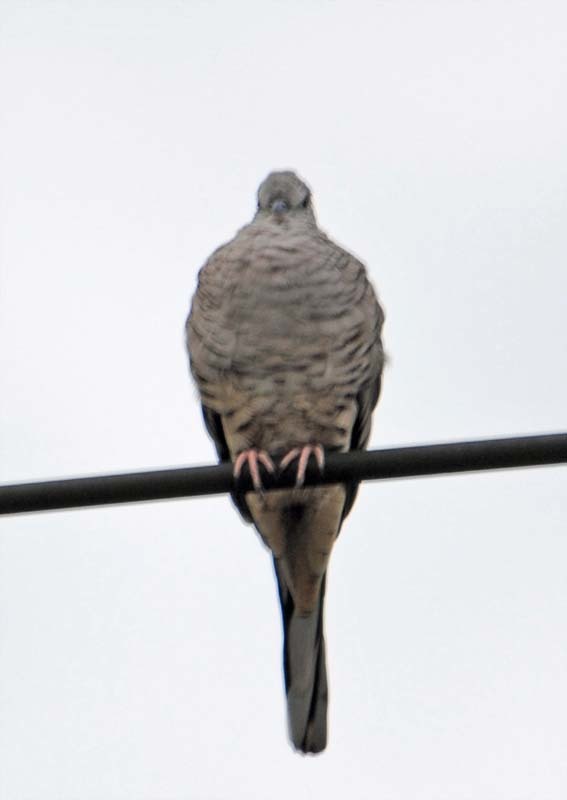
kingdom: Animalia
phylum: Chordata
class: Aves
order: Columbiformes
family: Columbidae
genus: Columbina
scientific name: Columbina inca
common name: Inca dove
